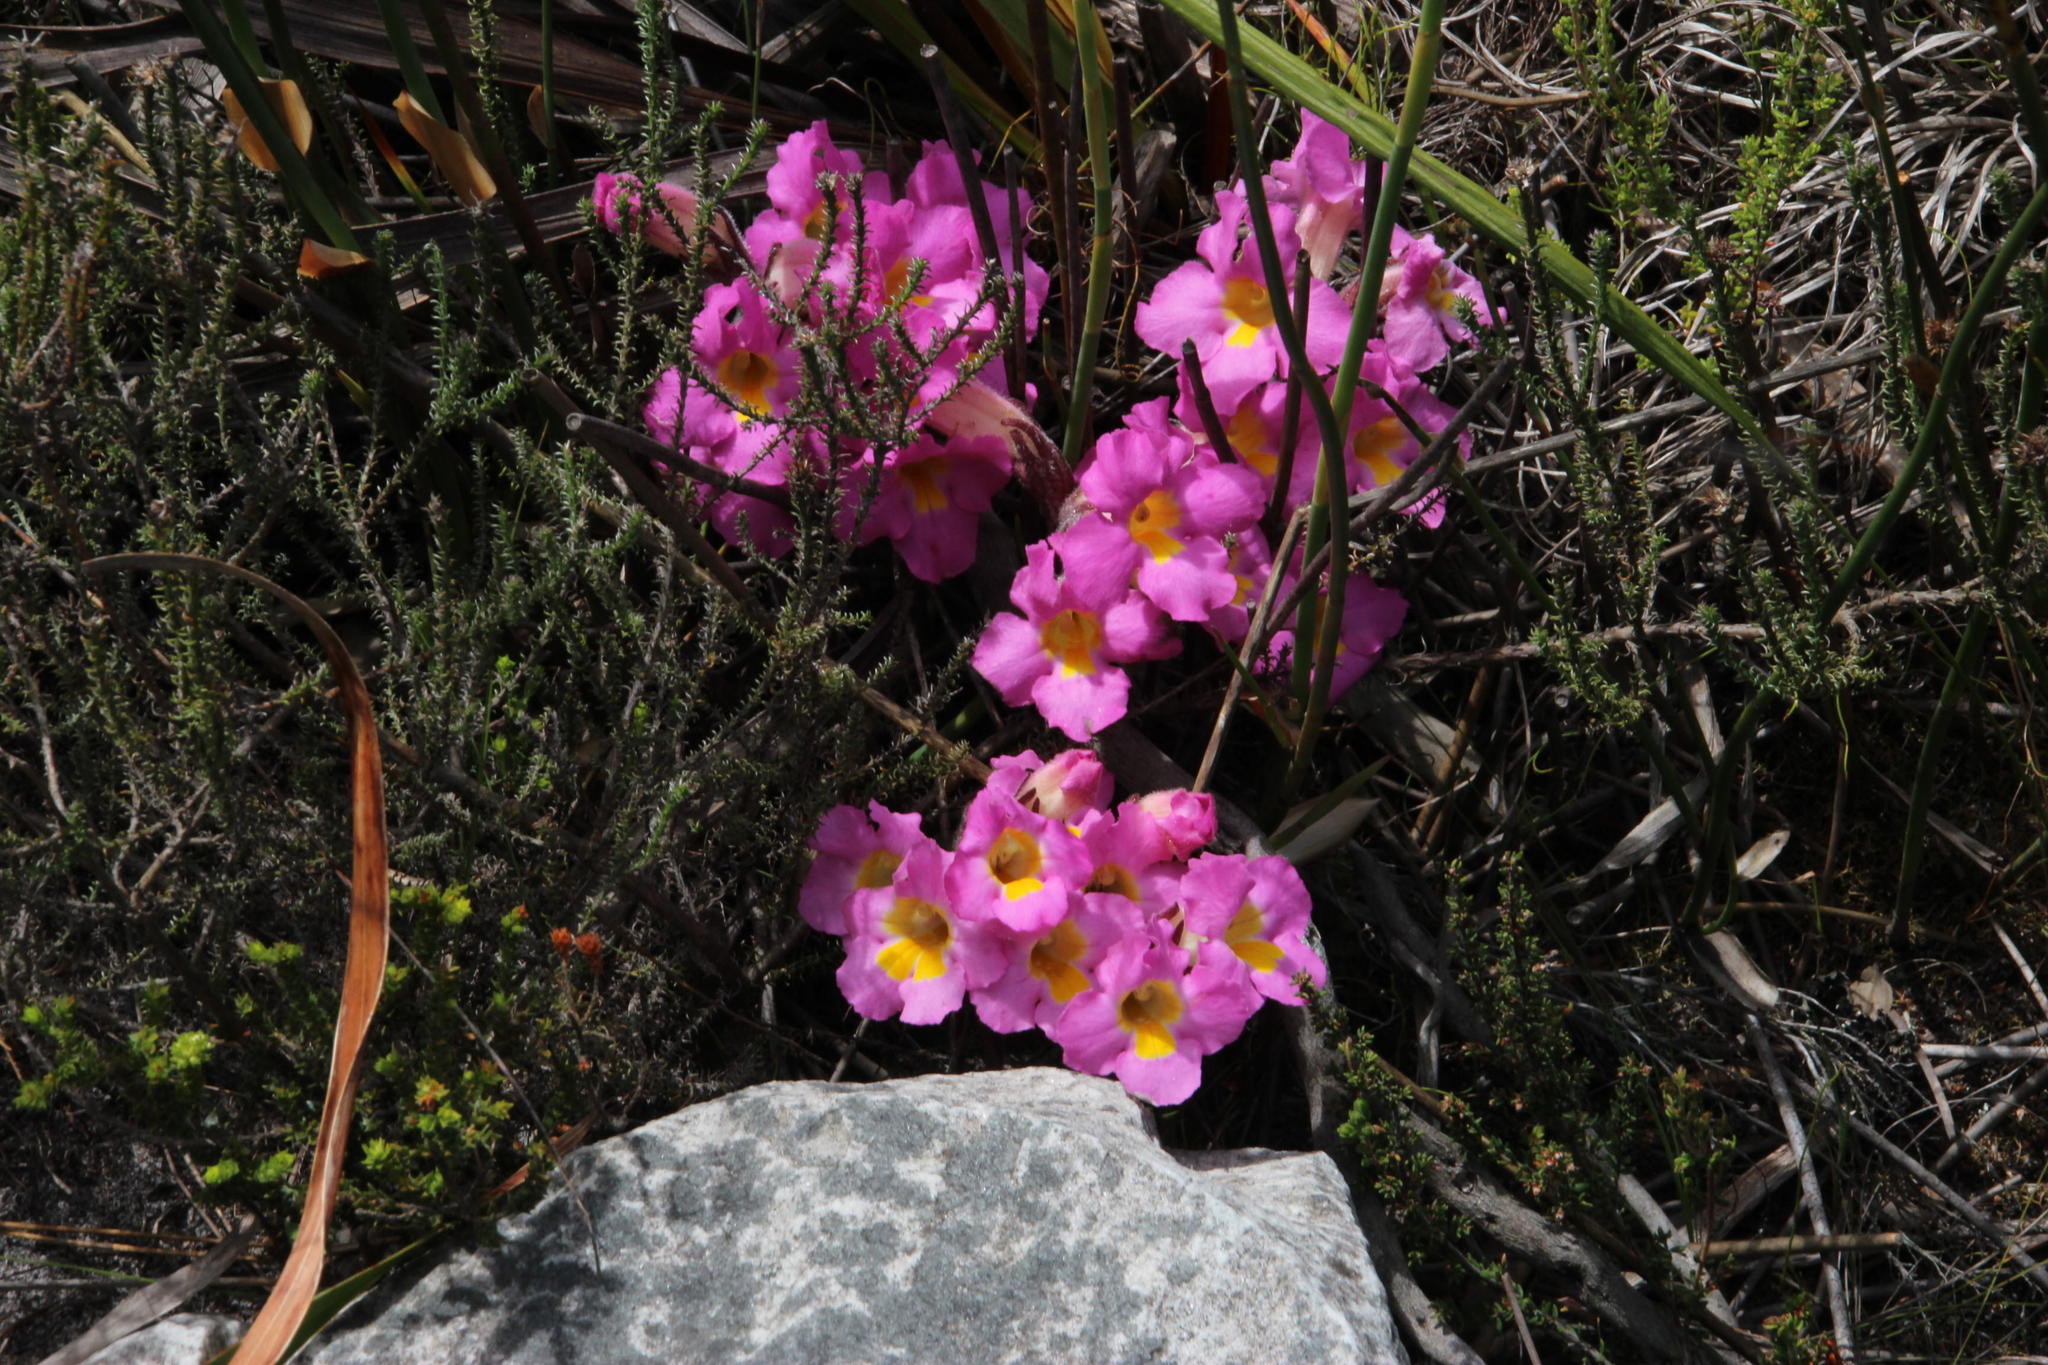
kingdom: Plantae
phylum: Tracheophyta
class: Magnoliopsida
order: Lamiales
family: Orobanchaceae
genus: Harveya
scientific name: Harveya purpurea
